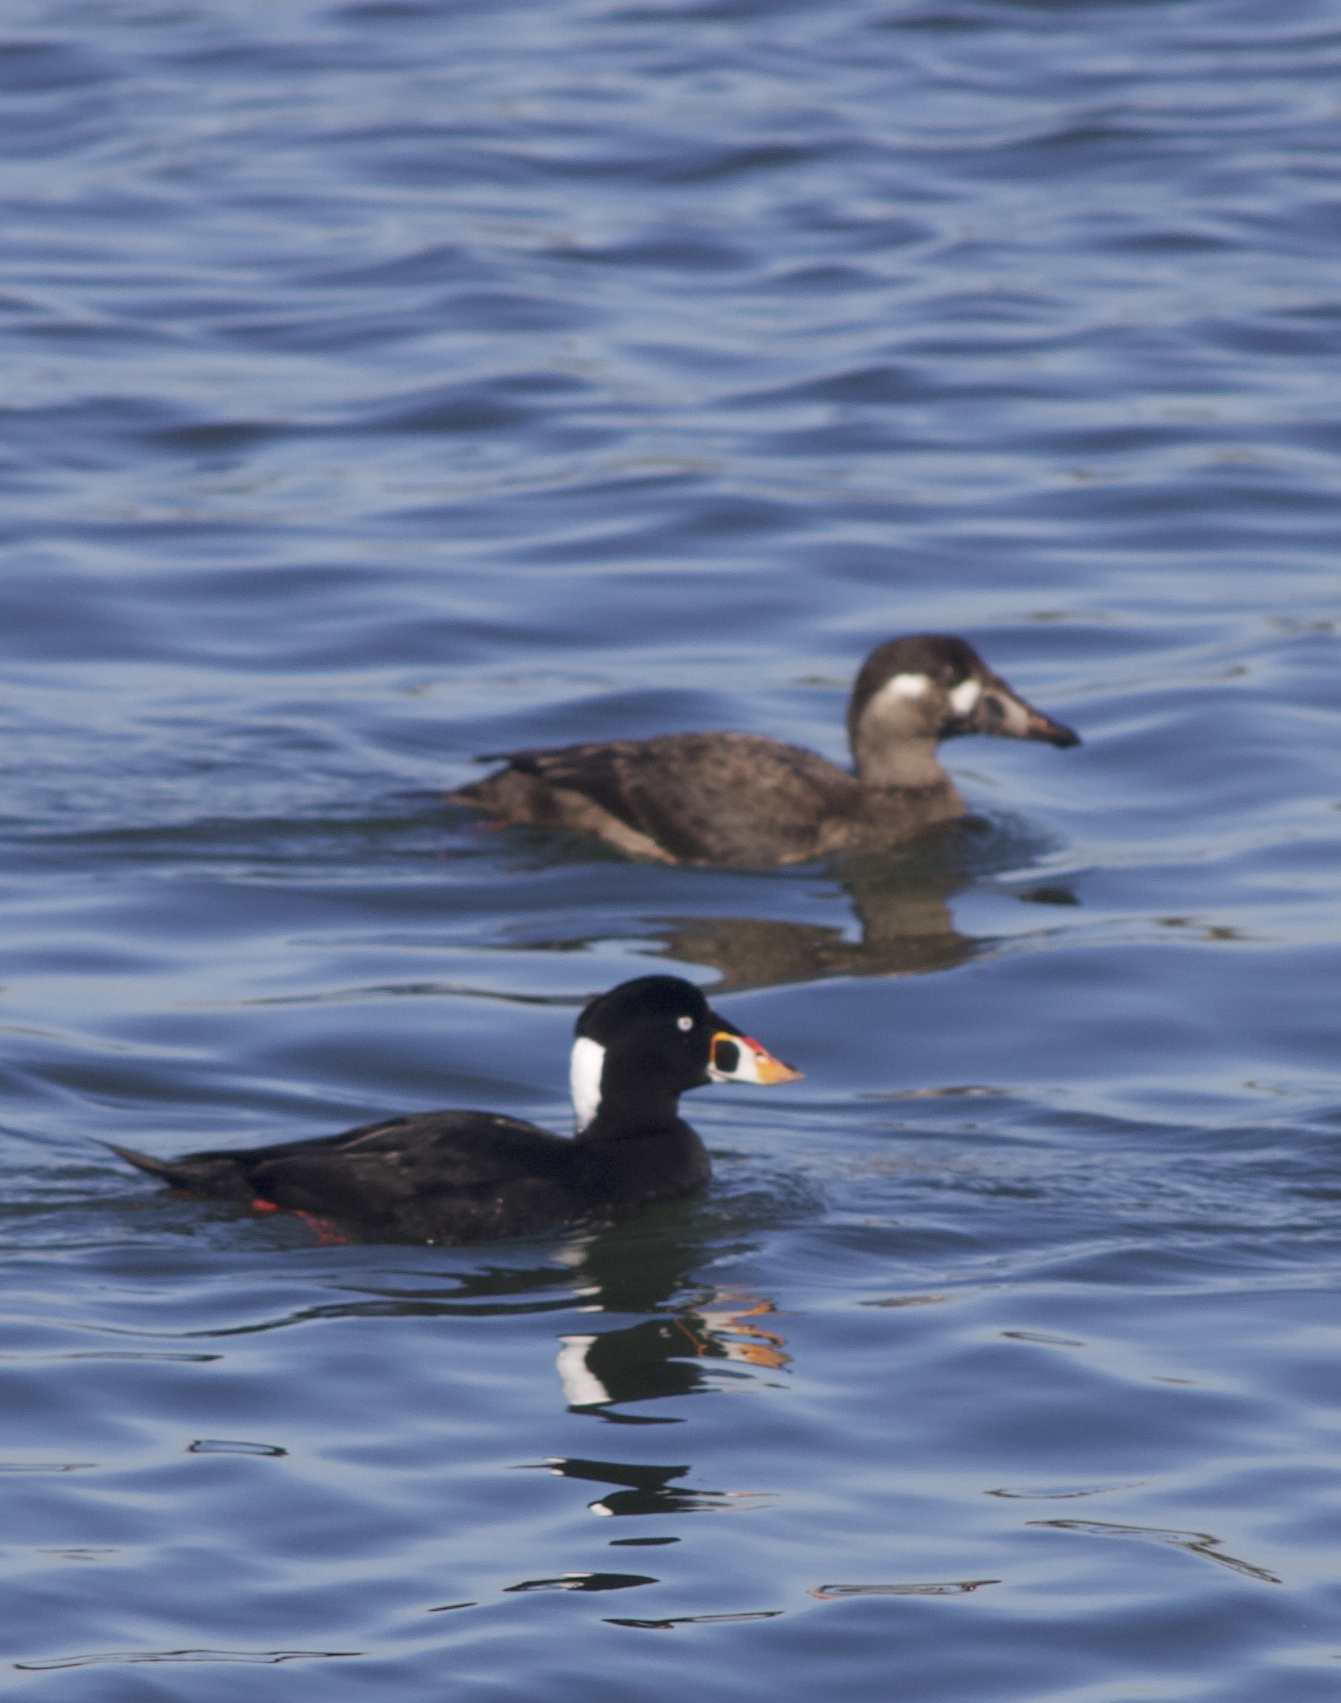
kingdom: Animalia
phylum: Chordata
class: Aves
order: Anseriformes
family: Anatidae
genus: Melanitta
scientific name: Melanitta perspicillata
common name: Surf scoter
